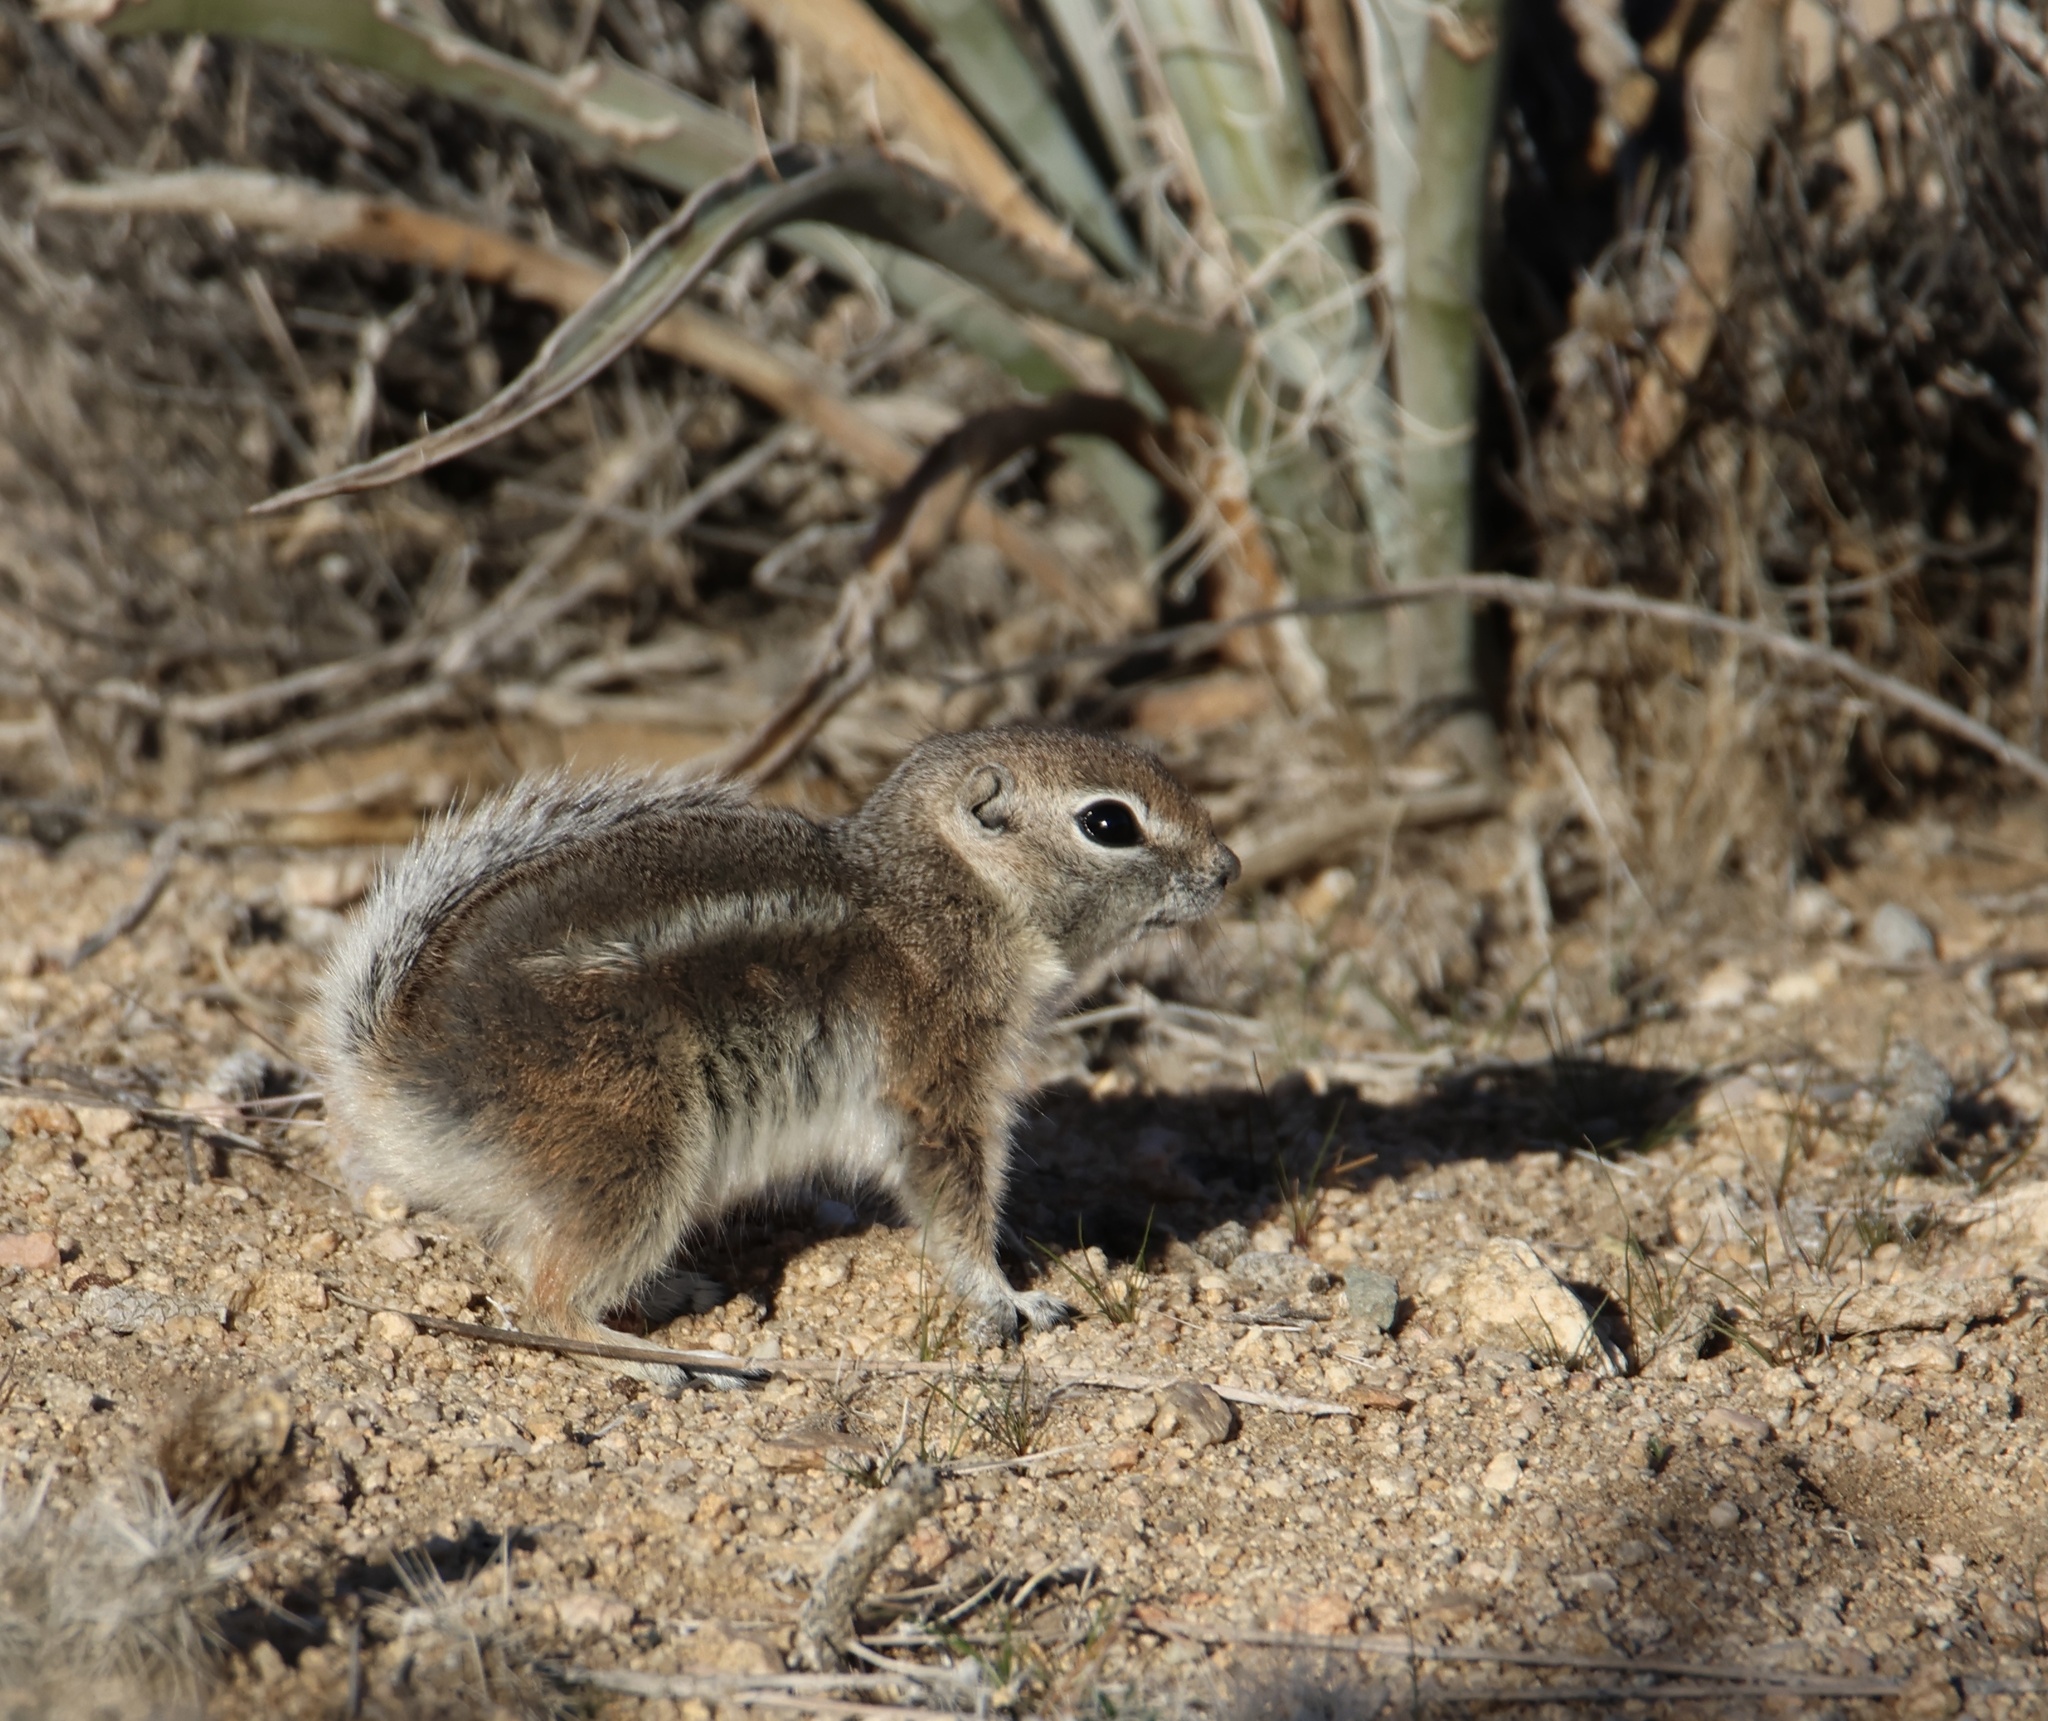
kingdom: Animalia
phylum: Chordata
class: Mammalia
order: Rodentia
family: Sciuridae
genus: Ammospermophilus
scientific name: Ammospermophilus leucurus
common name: White-tailed antelope squirrel
